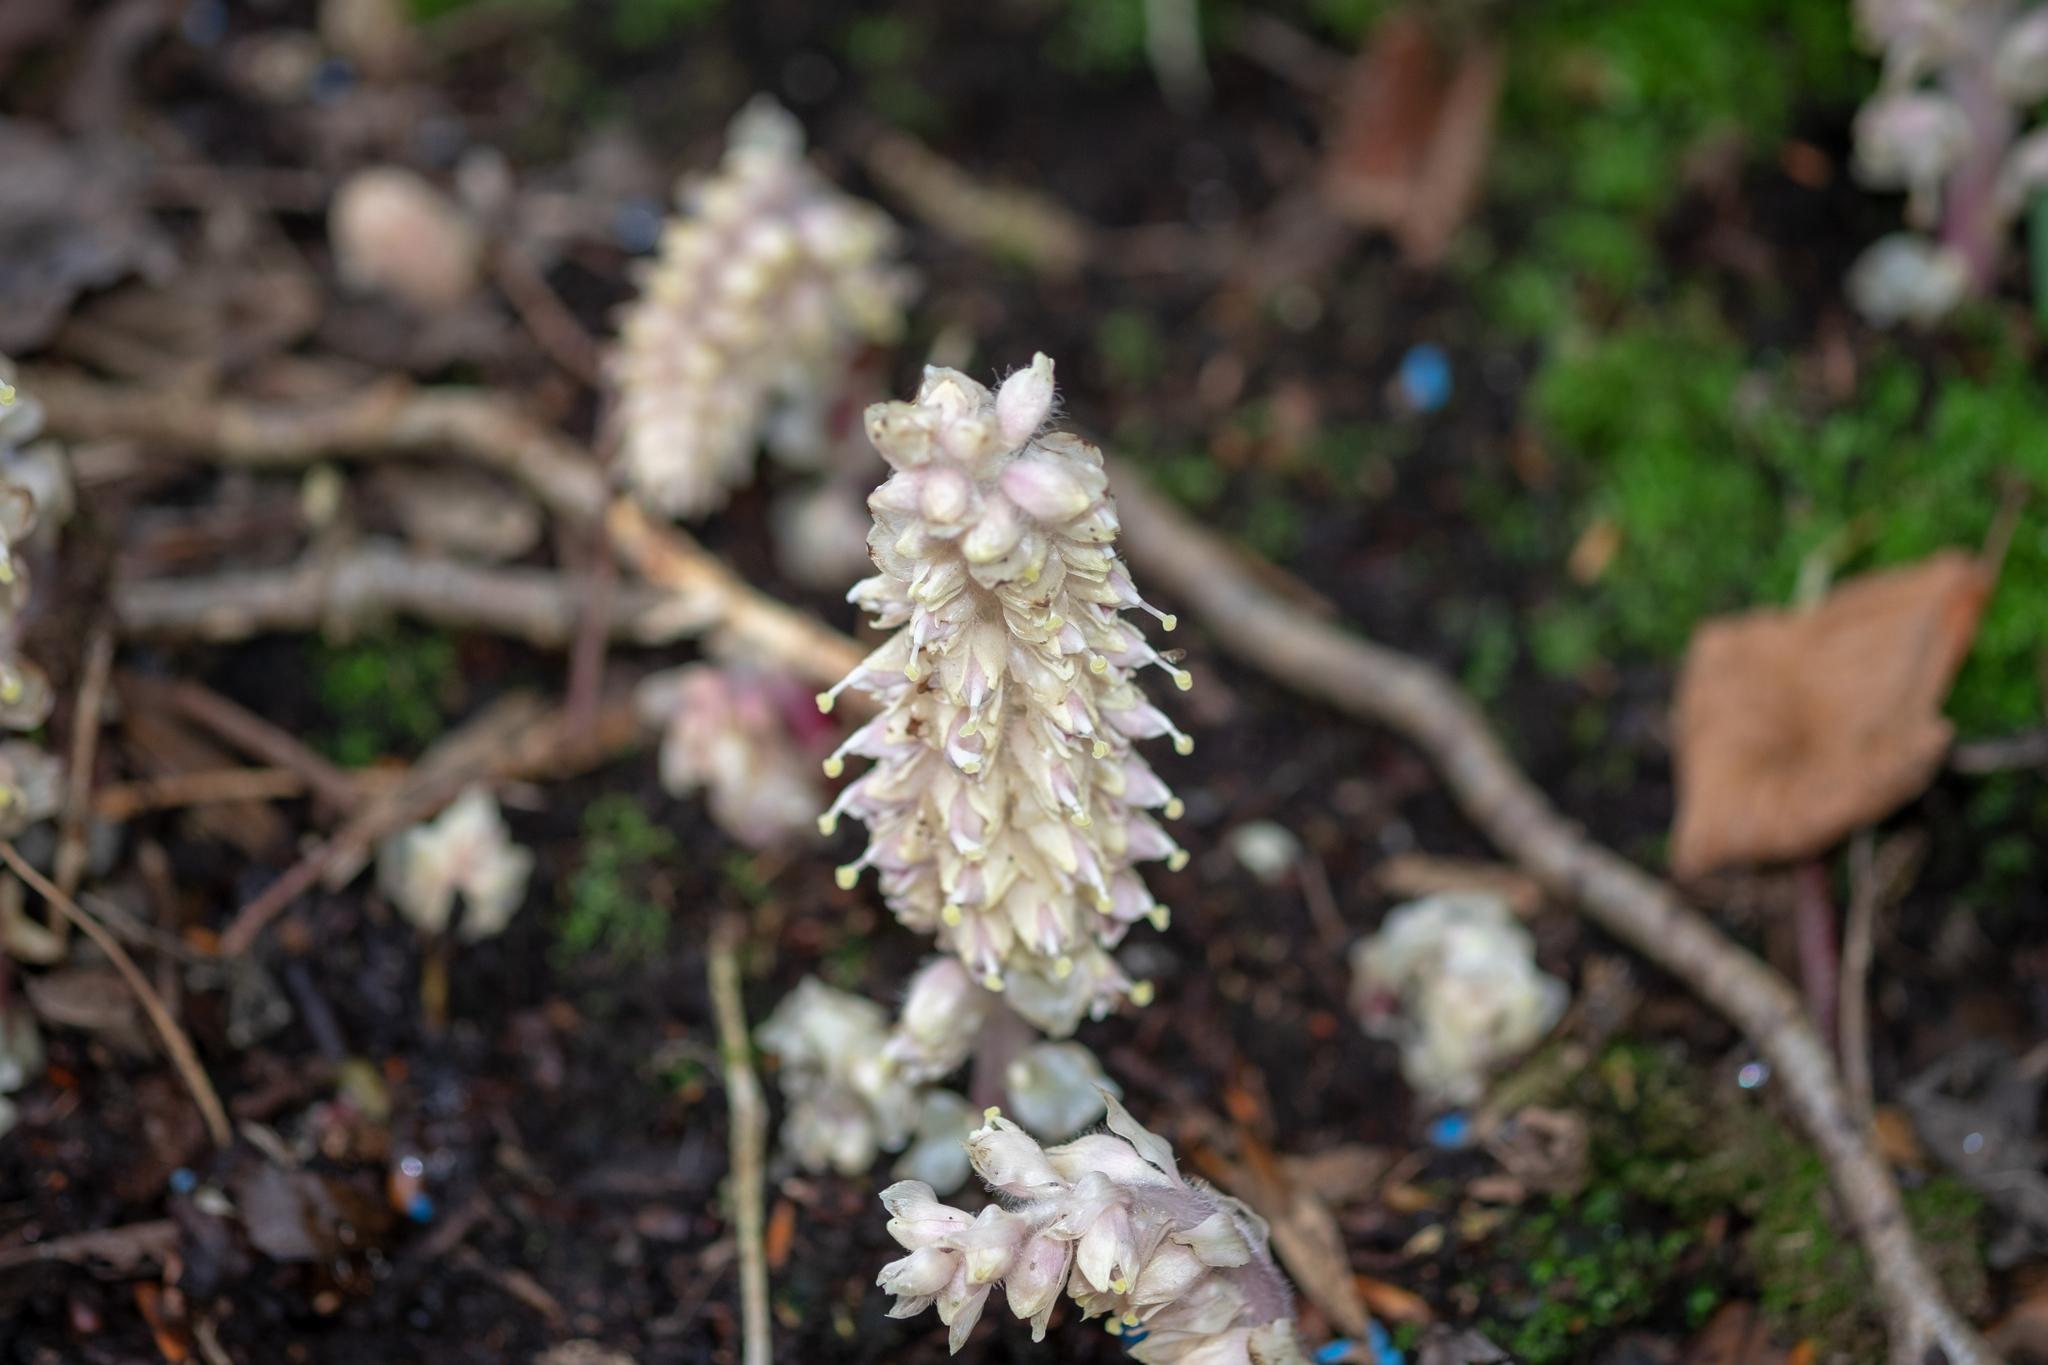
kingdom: Plantae
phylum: Tracheophyta
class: Magnoliopsida
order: Lamiales
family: Orobanchaceae
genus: Lathraea
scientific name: Lathraea squamaria
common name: Toothwort
